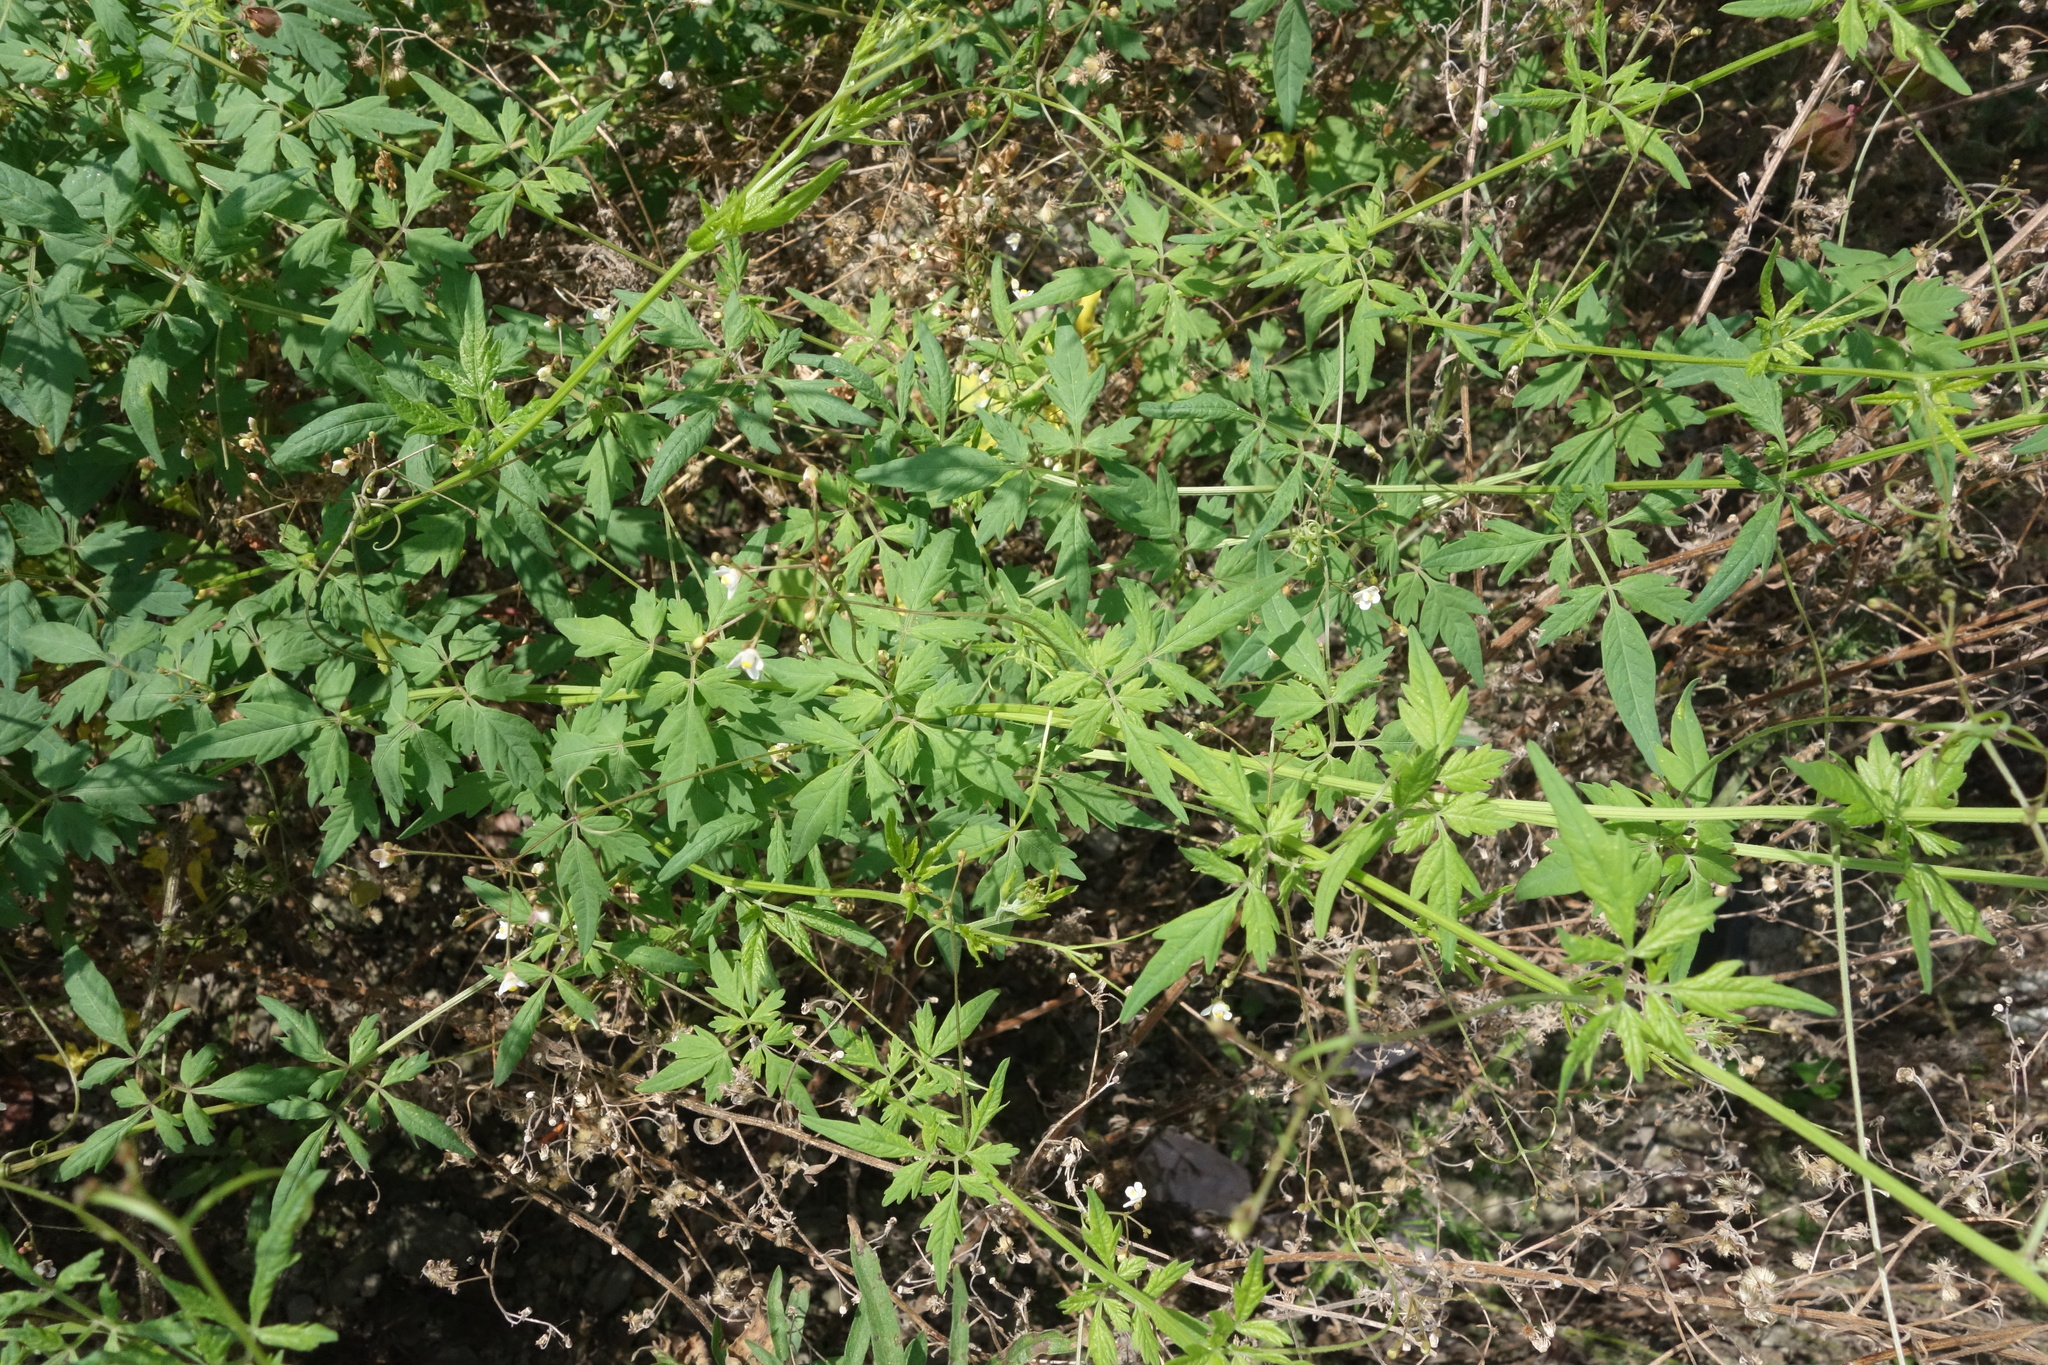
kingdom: Plantae
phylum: Tracheophyta
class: Magnoliopsida
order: Sapindales
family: Sapindaceae
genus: Cardiospermum
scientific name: Cardiospermum halicacabum
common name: Balloon vine
